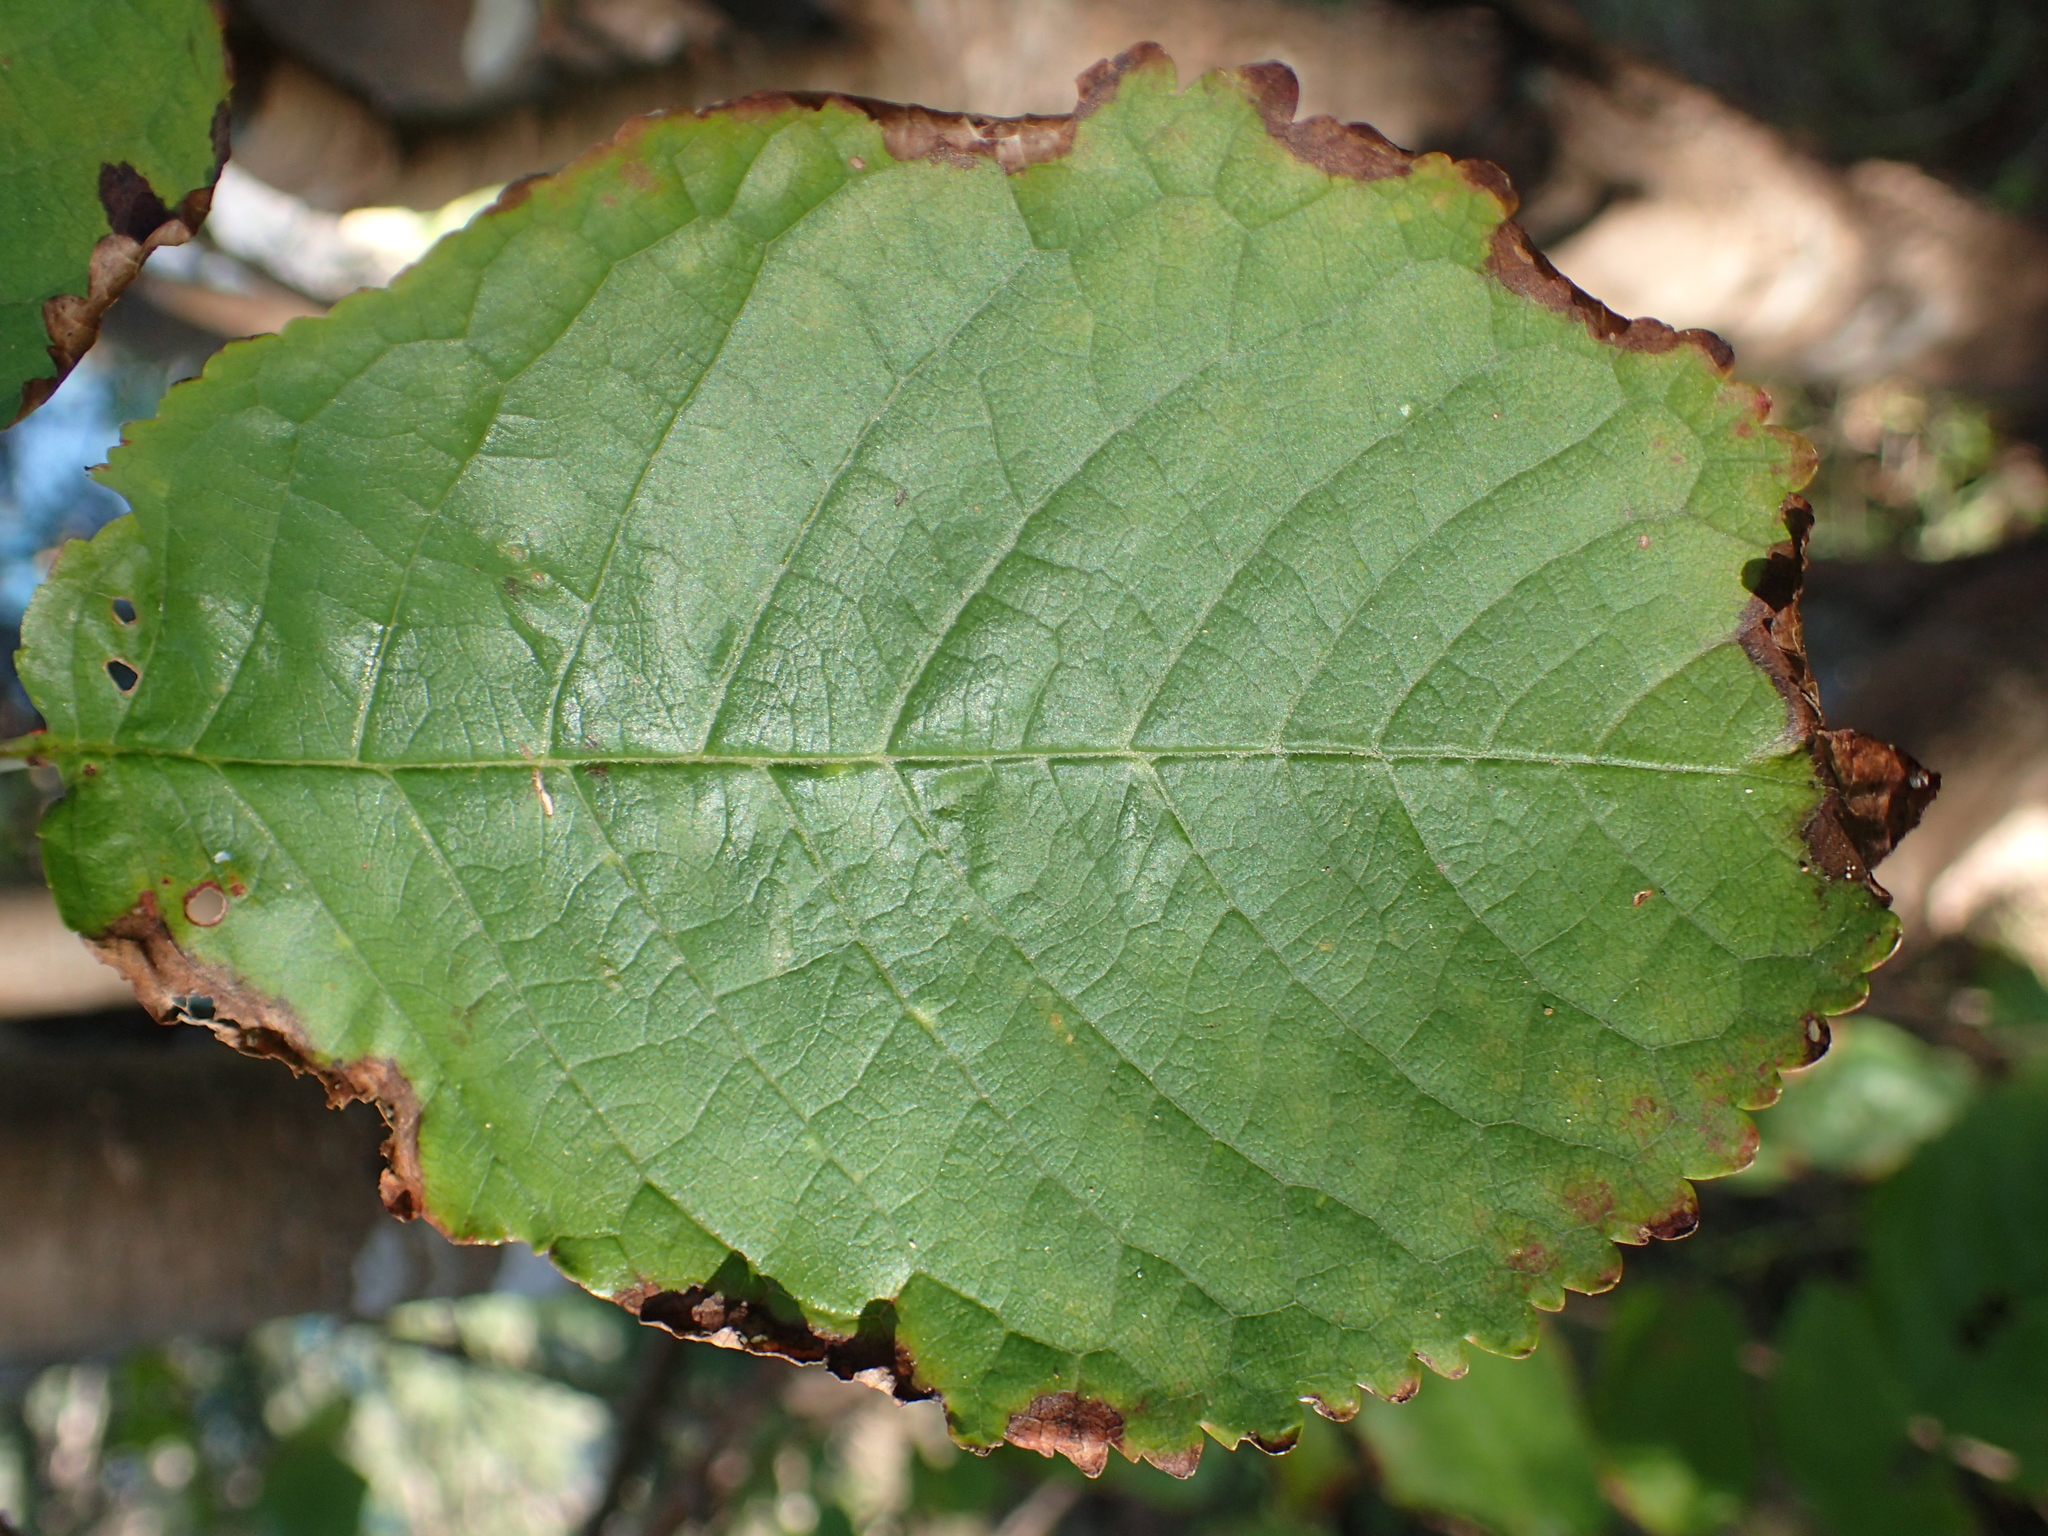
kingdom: Plantae
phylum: Tracheophyta
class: Magnoliopsida
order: Rosales
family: Rosaceae
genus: Prunus
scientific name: Prunus
